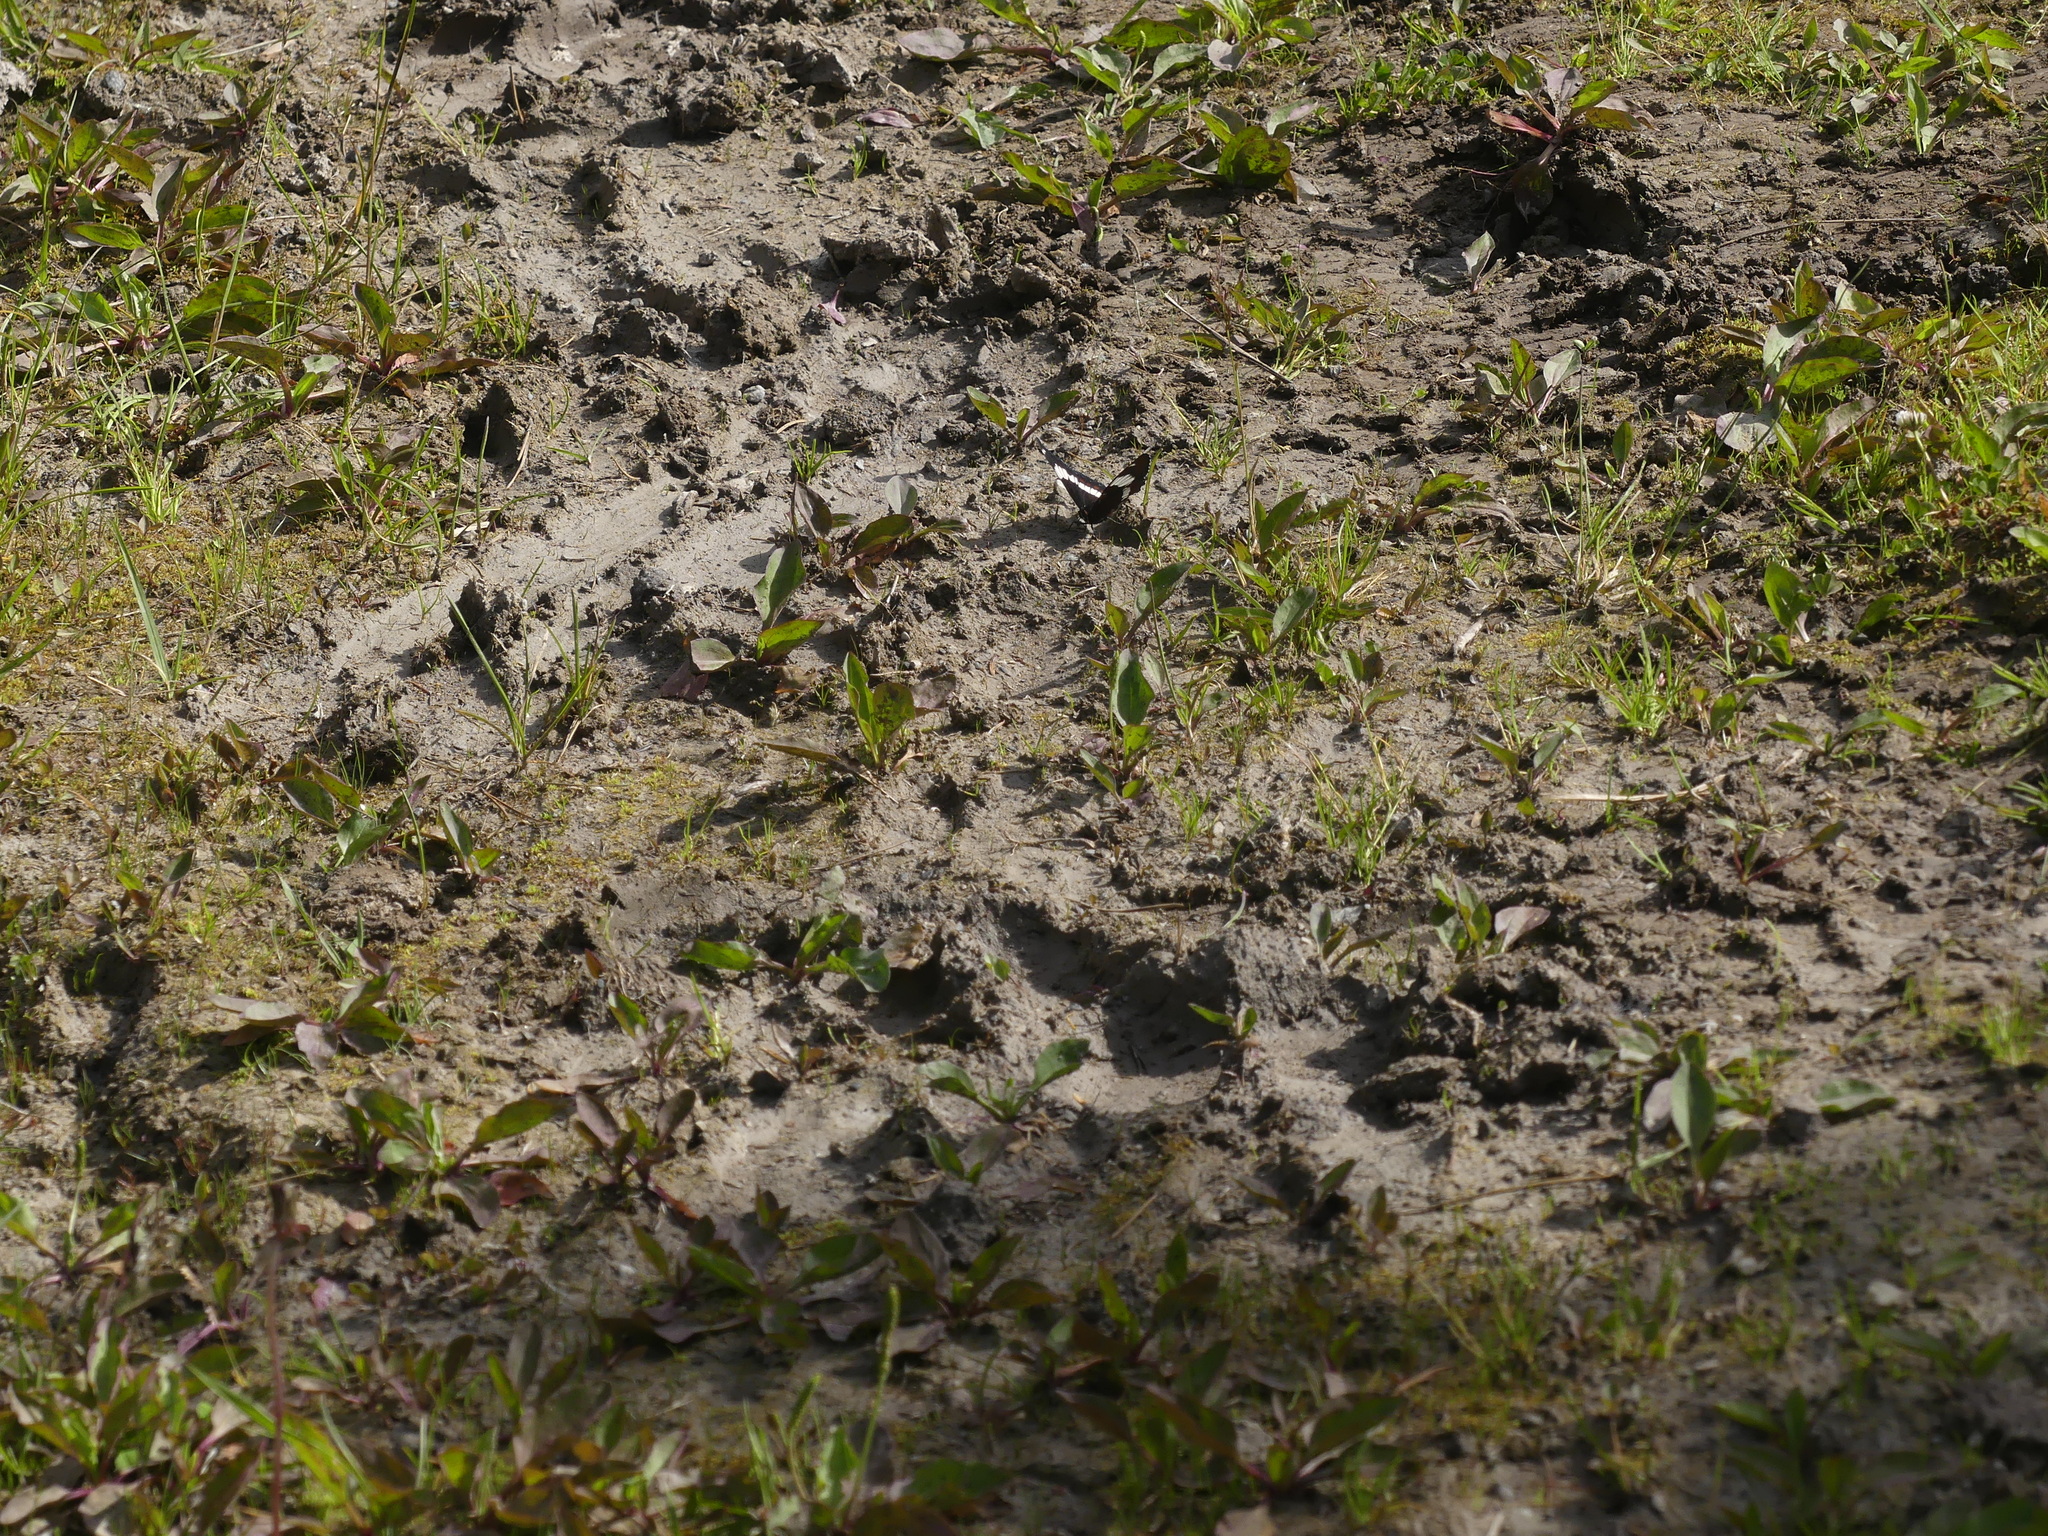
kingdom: Animalia
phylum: Arthropoda
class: Insecta
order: Lepidoptera
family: Nymphalidae
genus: Limenitis
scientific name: Limenitis arthemis
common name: Red-spotted admiral
